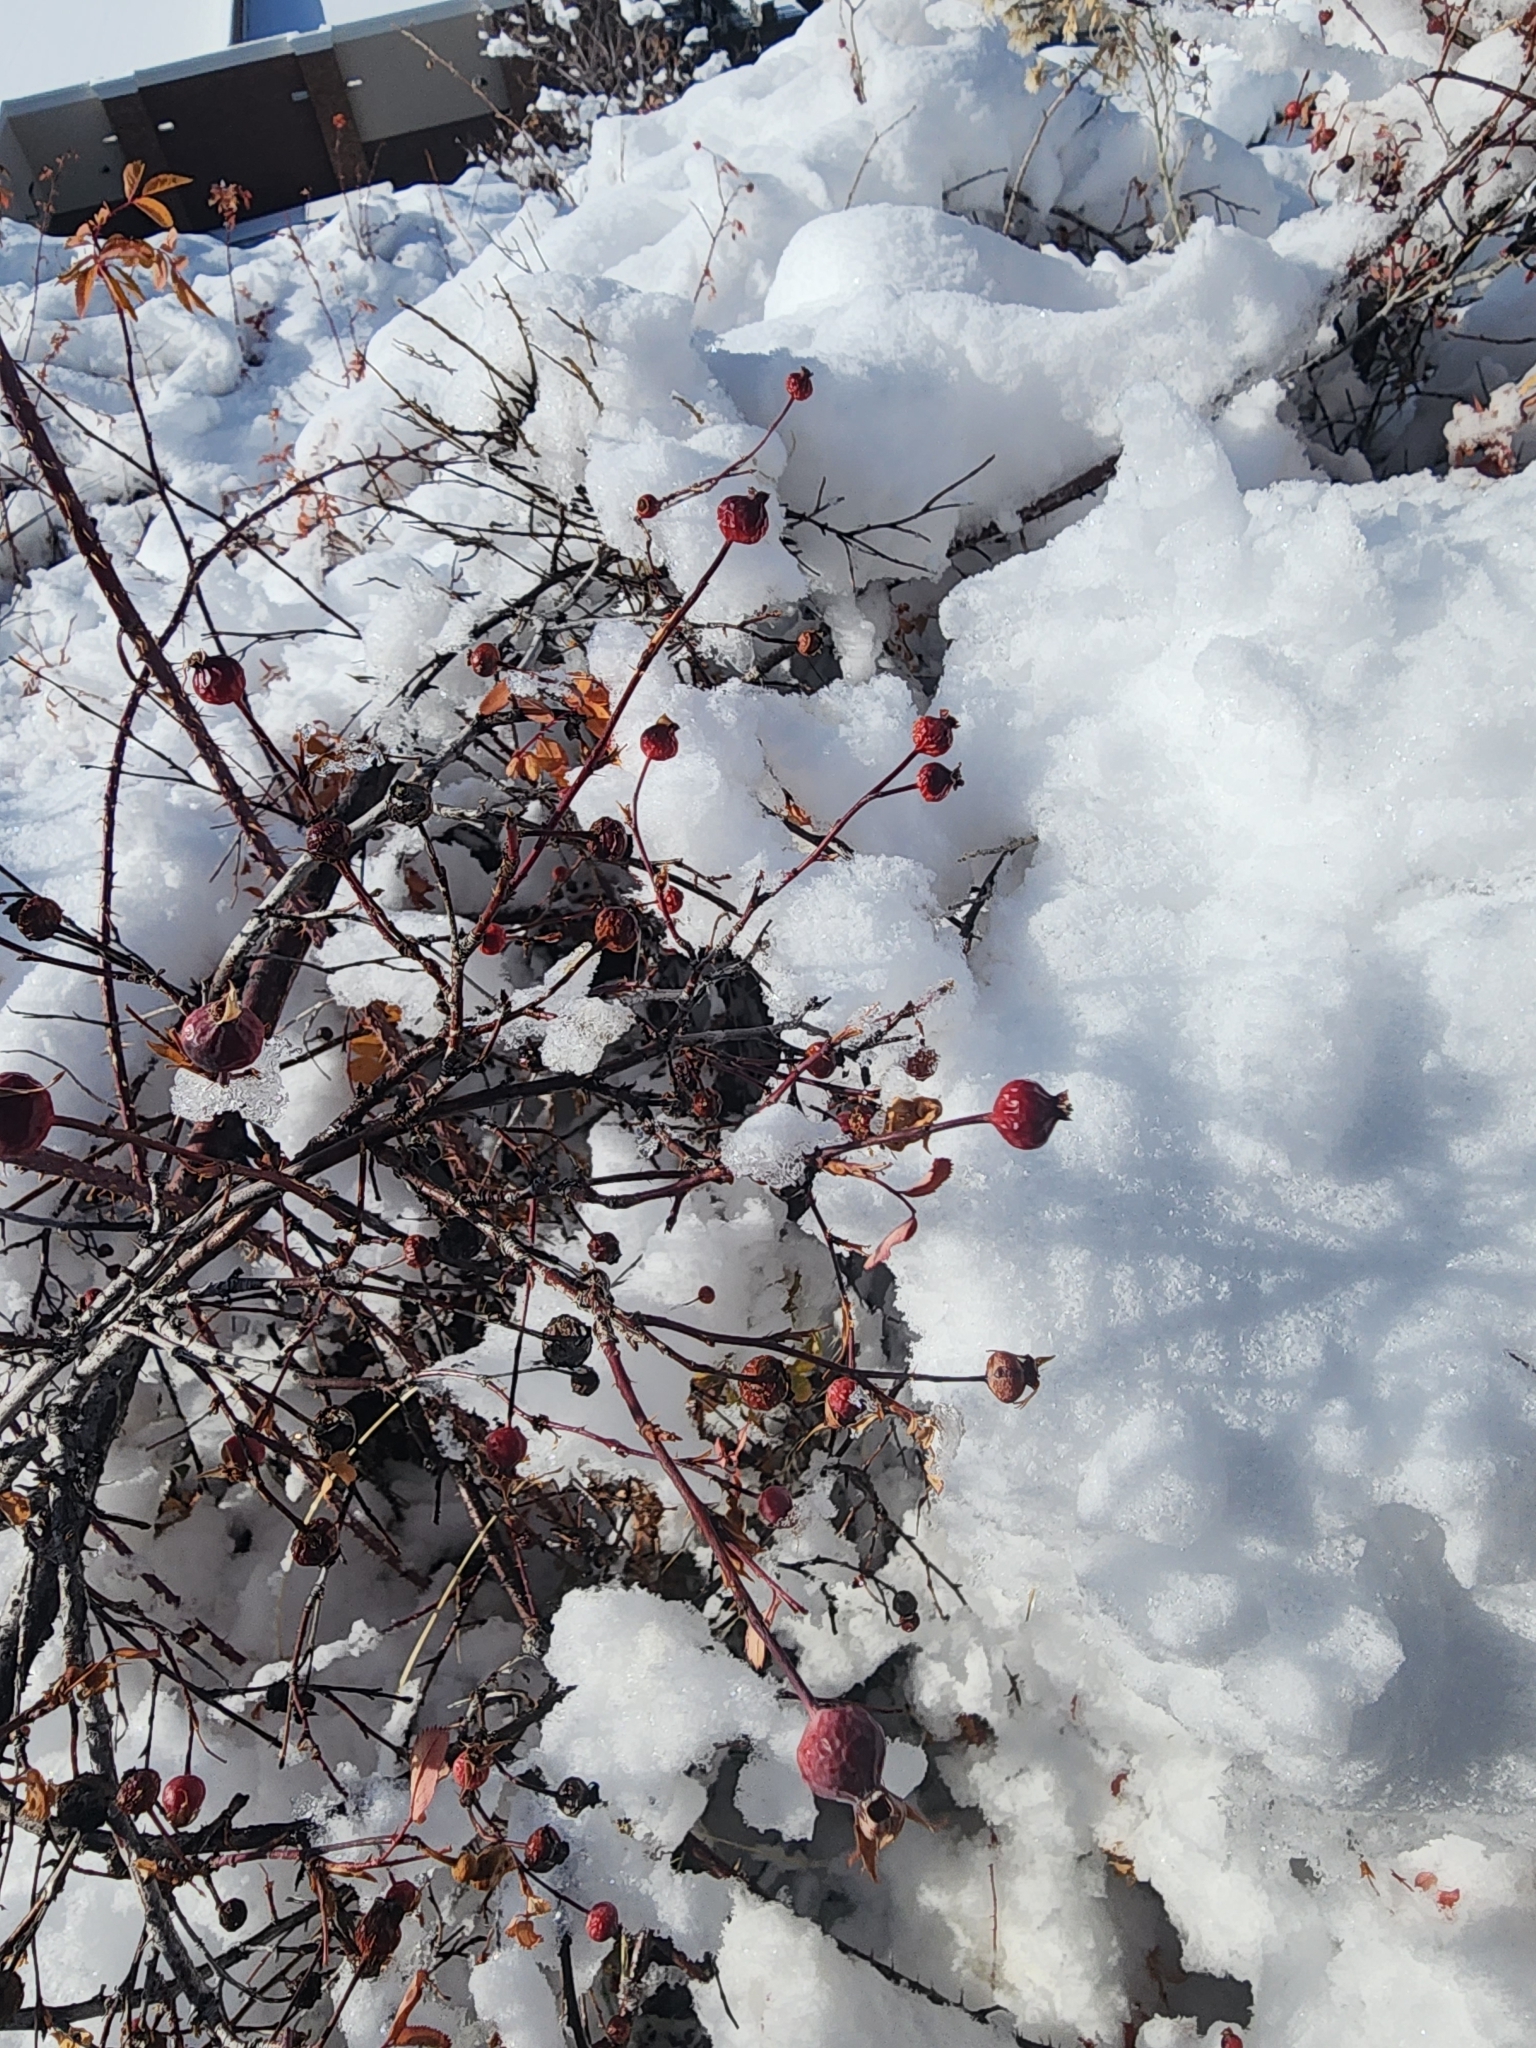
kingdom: Plantae
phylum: Tracheophyta
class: Magnoliopsida
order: Rosales
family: Rosaceae
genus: Rosa
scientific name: Rosa woodsii
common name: Woods's rose
